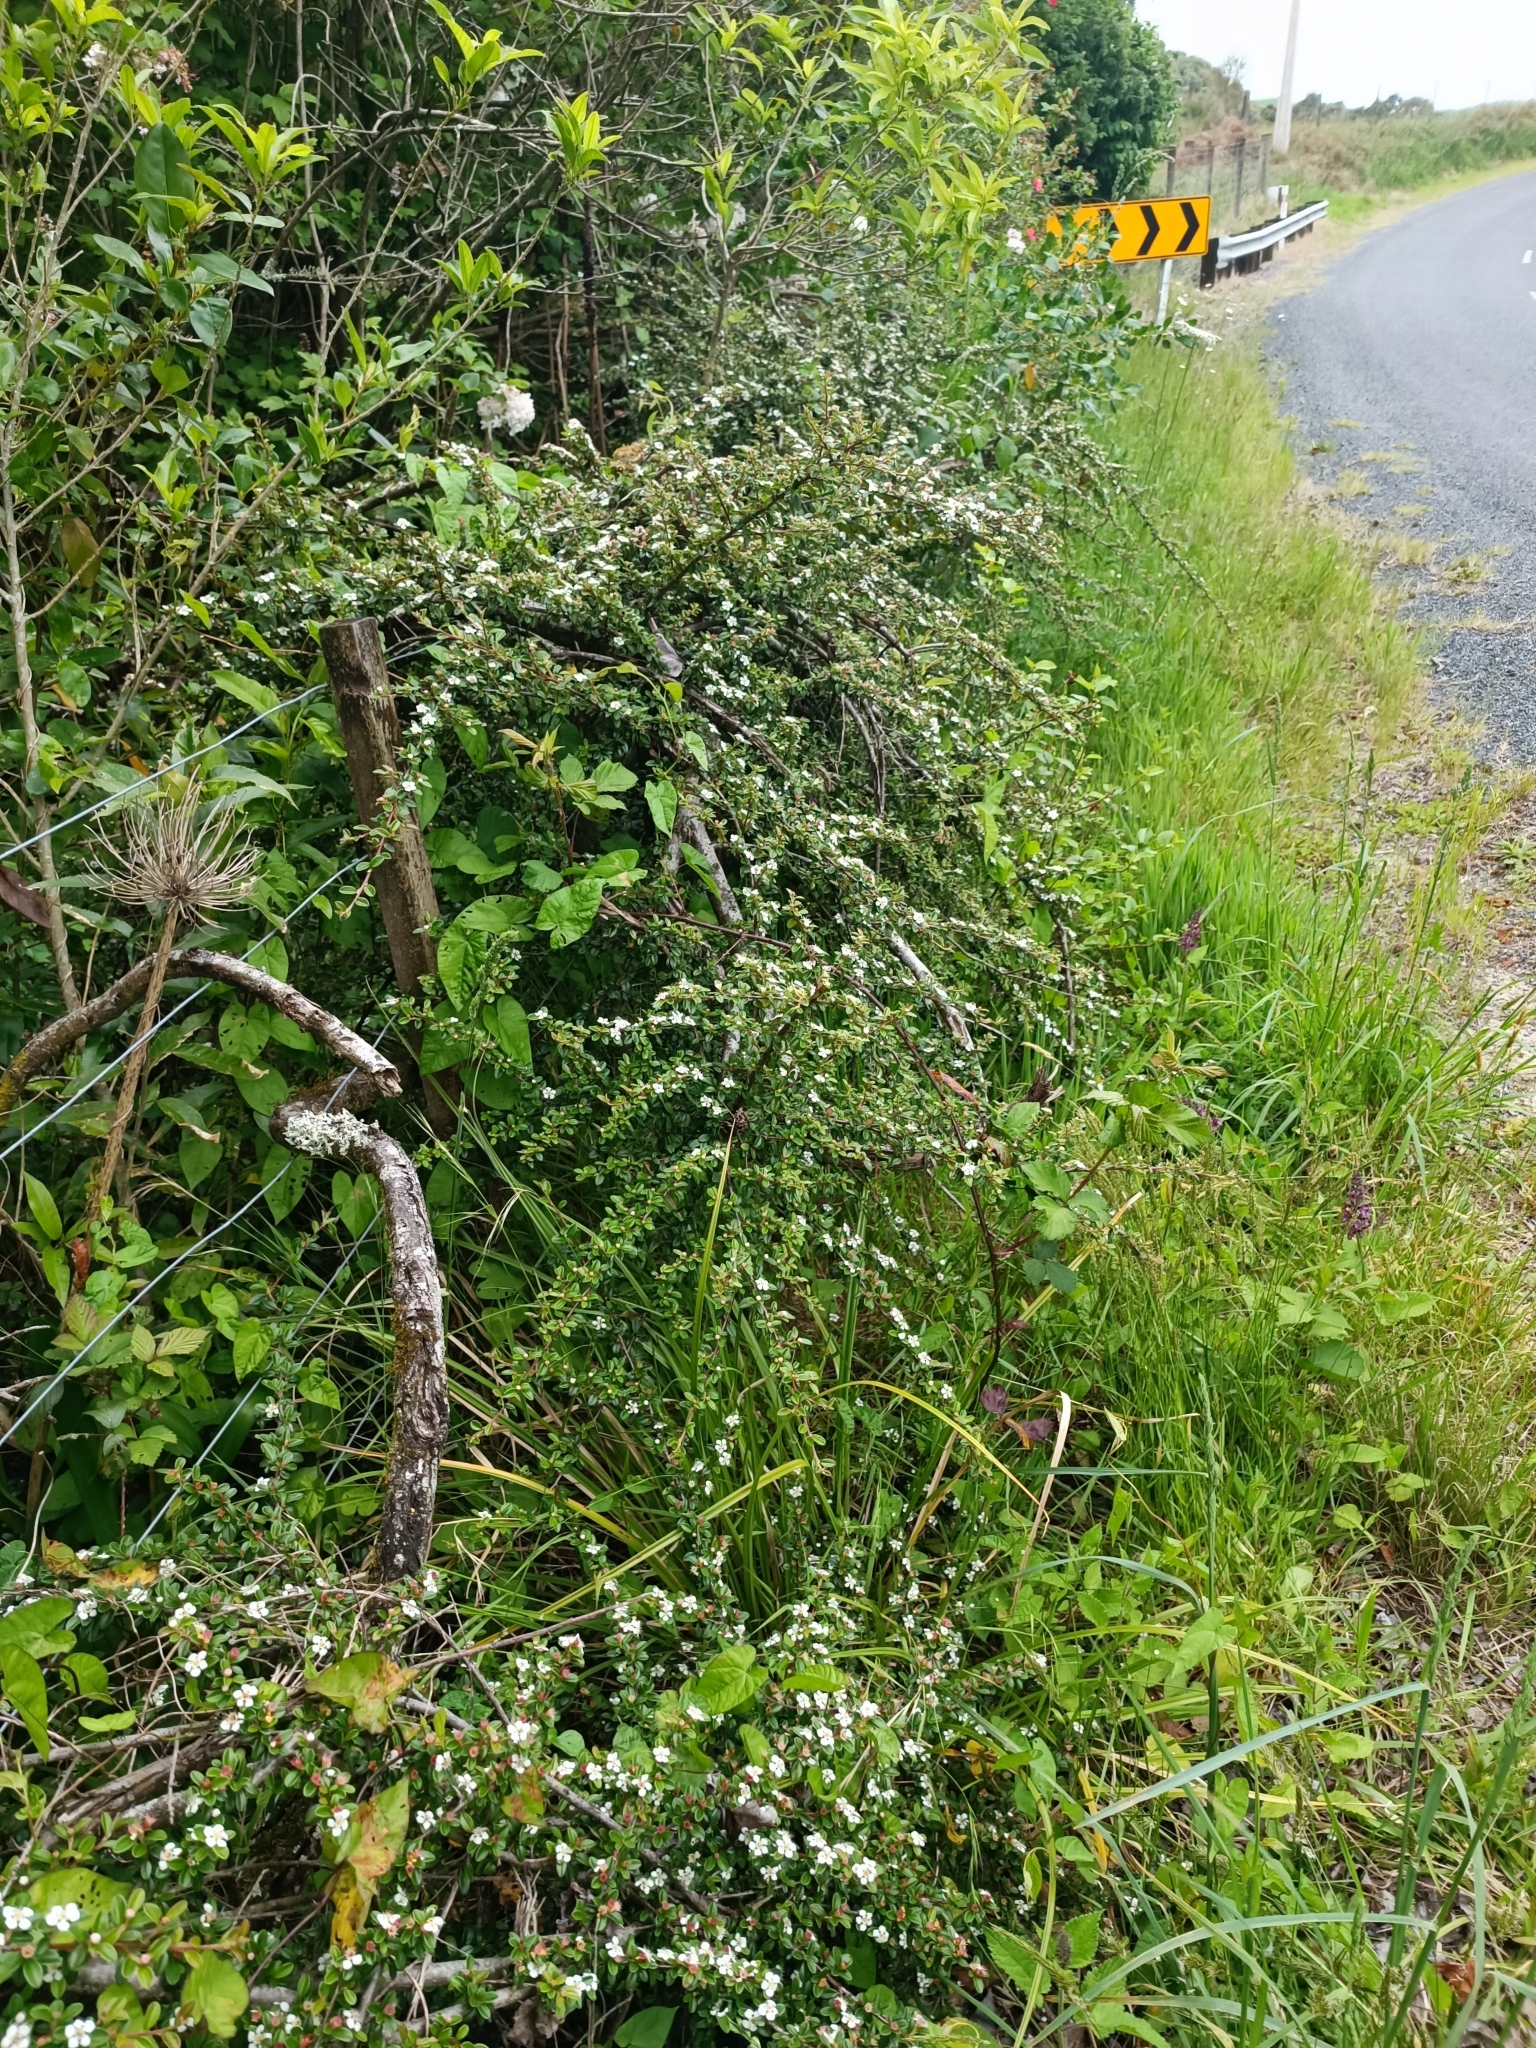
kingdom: Plantae
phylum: Tracheophyta
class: Magnoliopsida
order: Rosales
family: Rosaceae
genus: Cotoneaster
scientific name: Cotoneaster microphyllus
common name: Small-leaved cotoneaster
